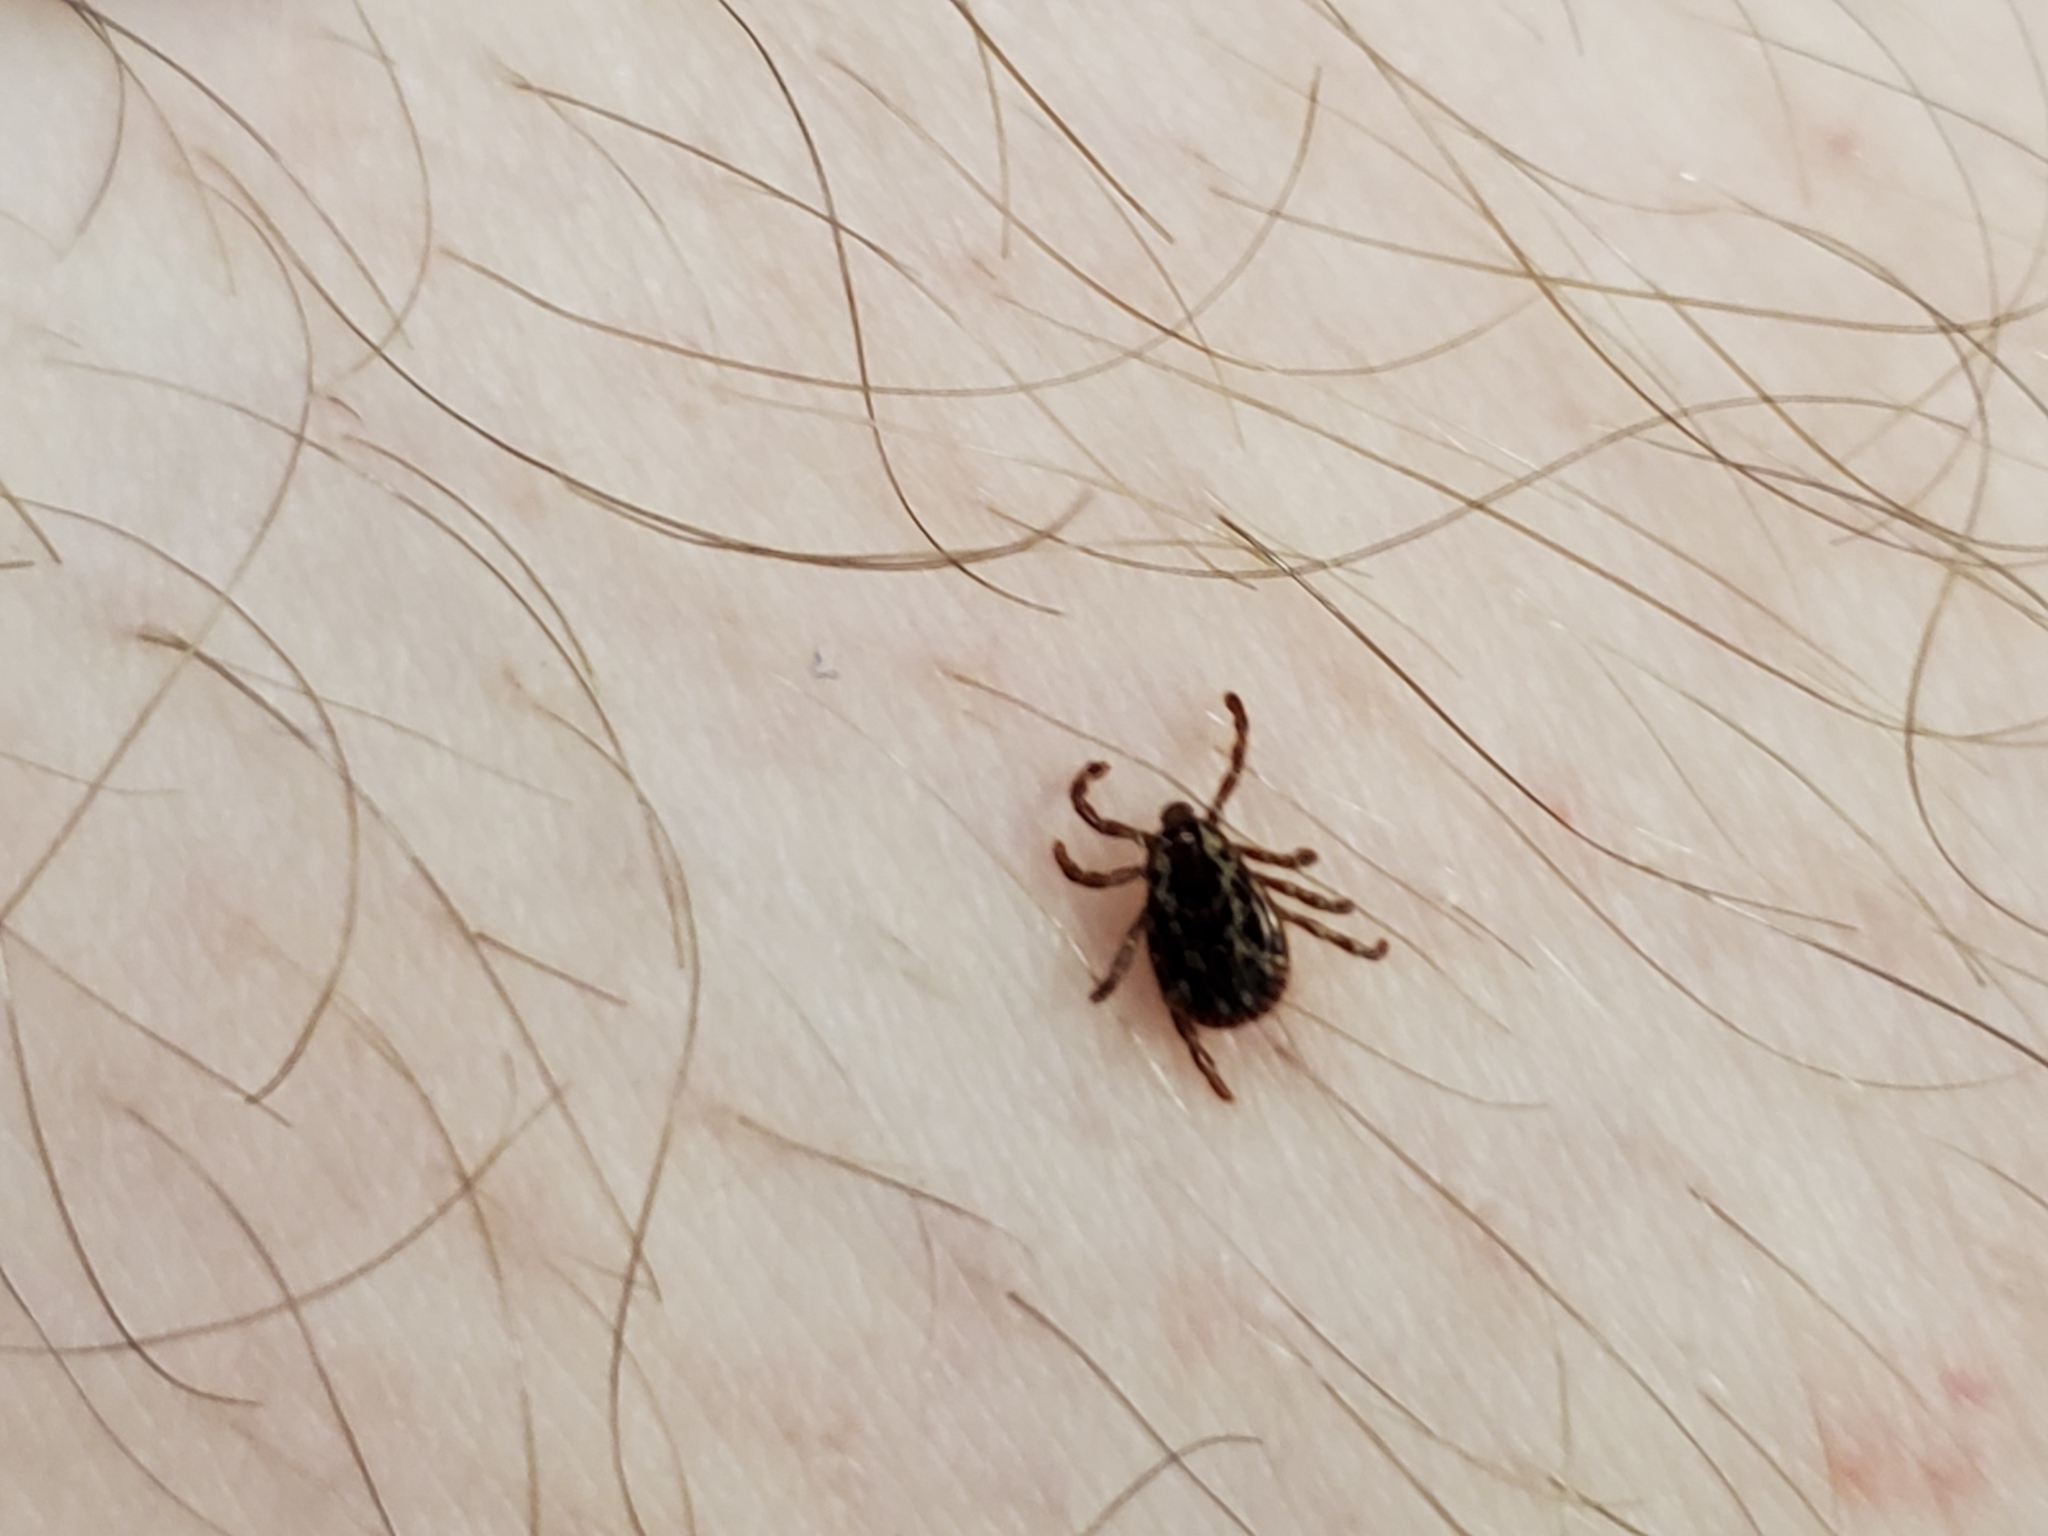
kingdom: Animalia
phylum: Arthropoda
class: Arachnida
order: Ixodida
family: Ixodidae
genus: Dermacentor
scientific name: Dermacentor variabilis
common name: American dog tick
